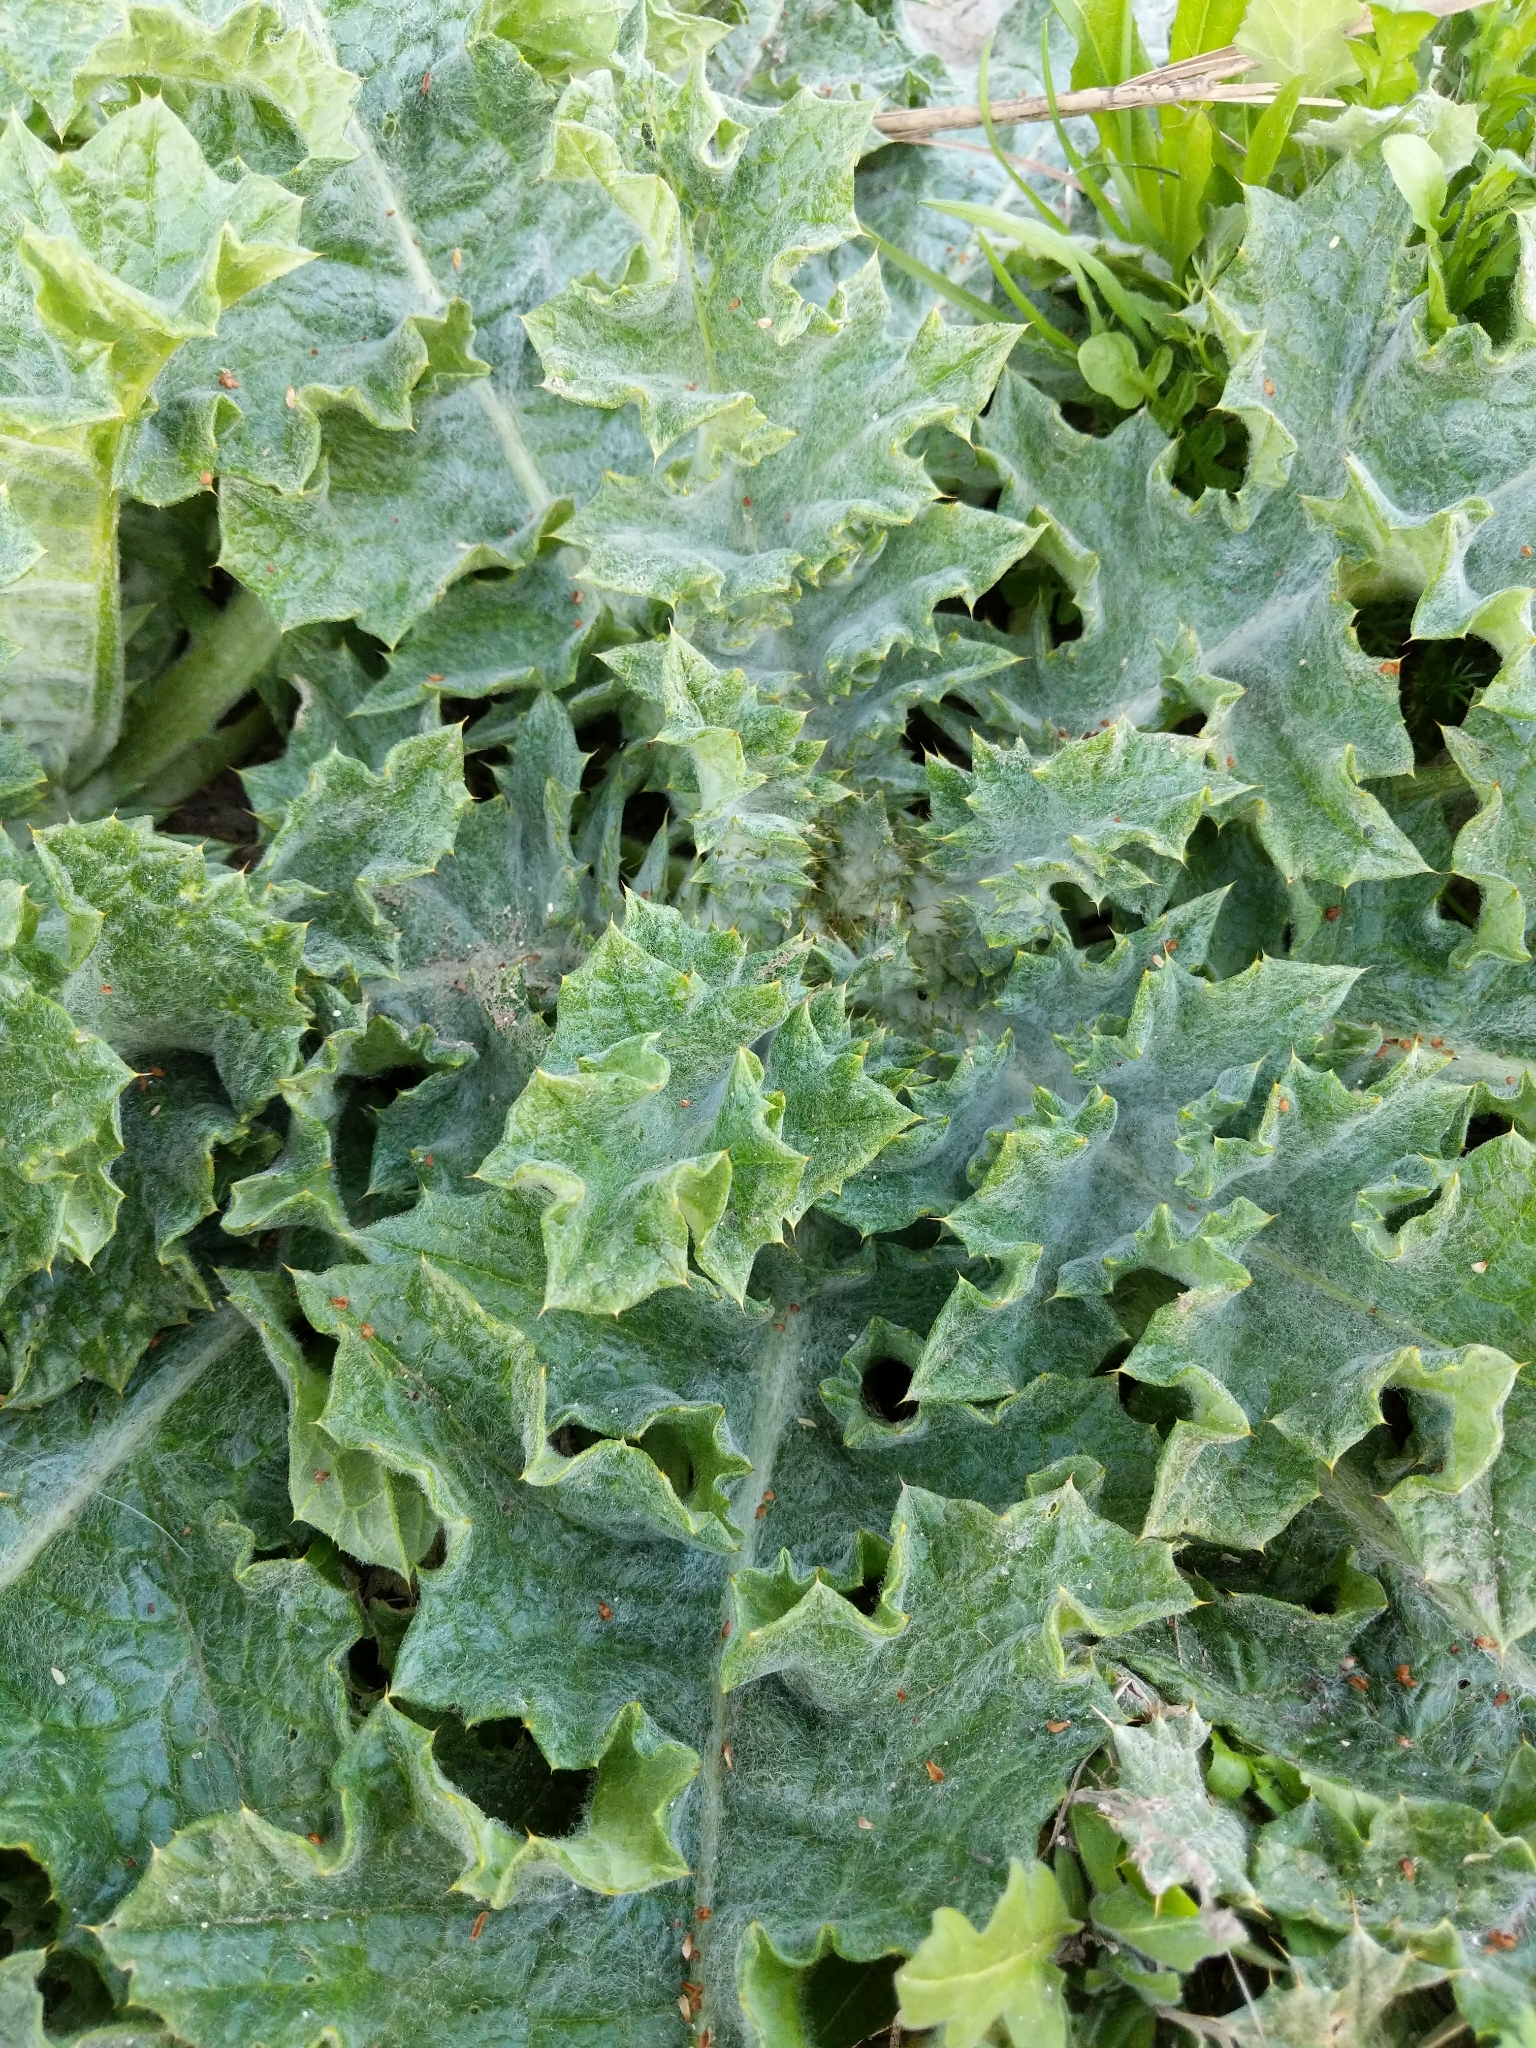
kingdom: Plantae
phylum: Tracheophyta
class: Magnoliopsida
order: Asterales
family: Asteraceae
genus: Onopordum
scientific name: Onopordum acanthium
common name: Scotch thistle
